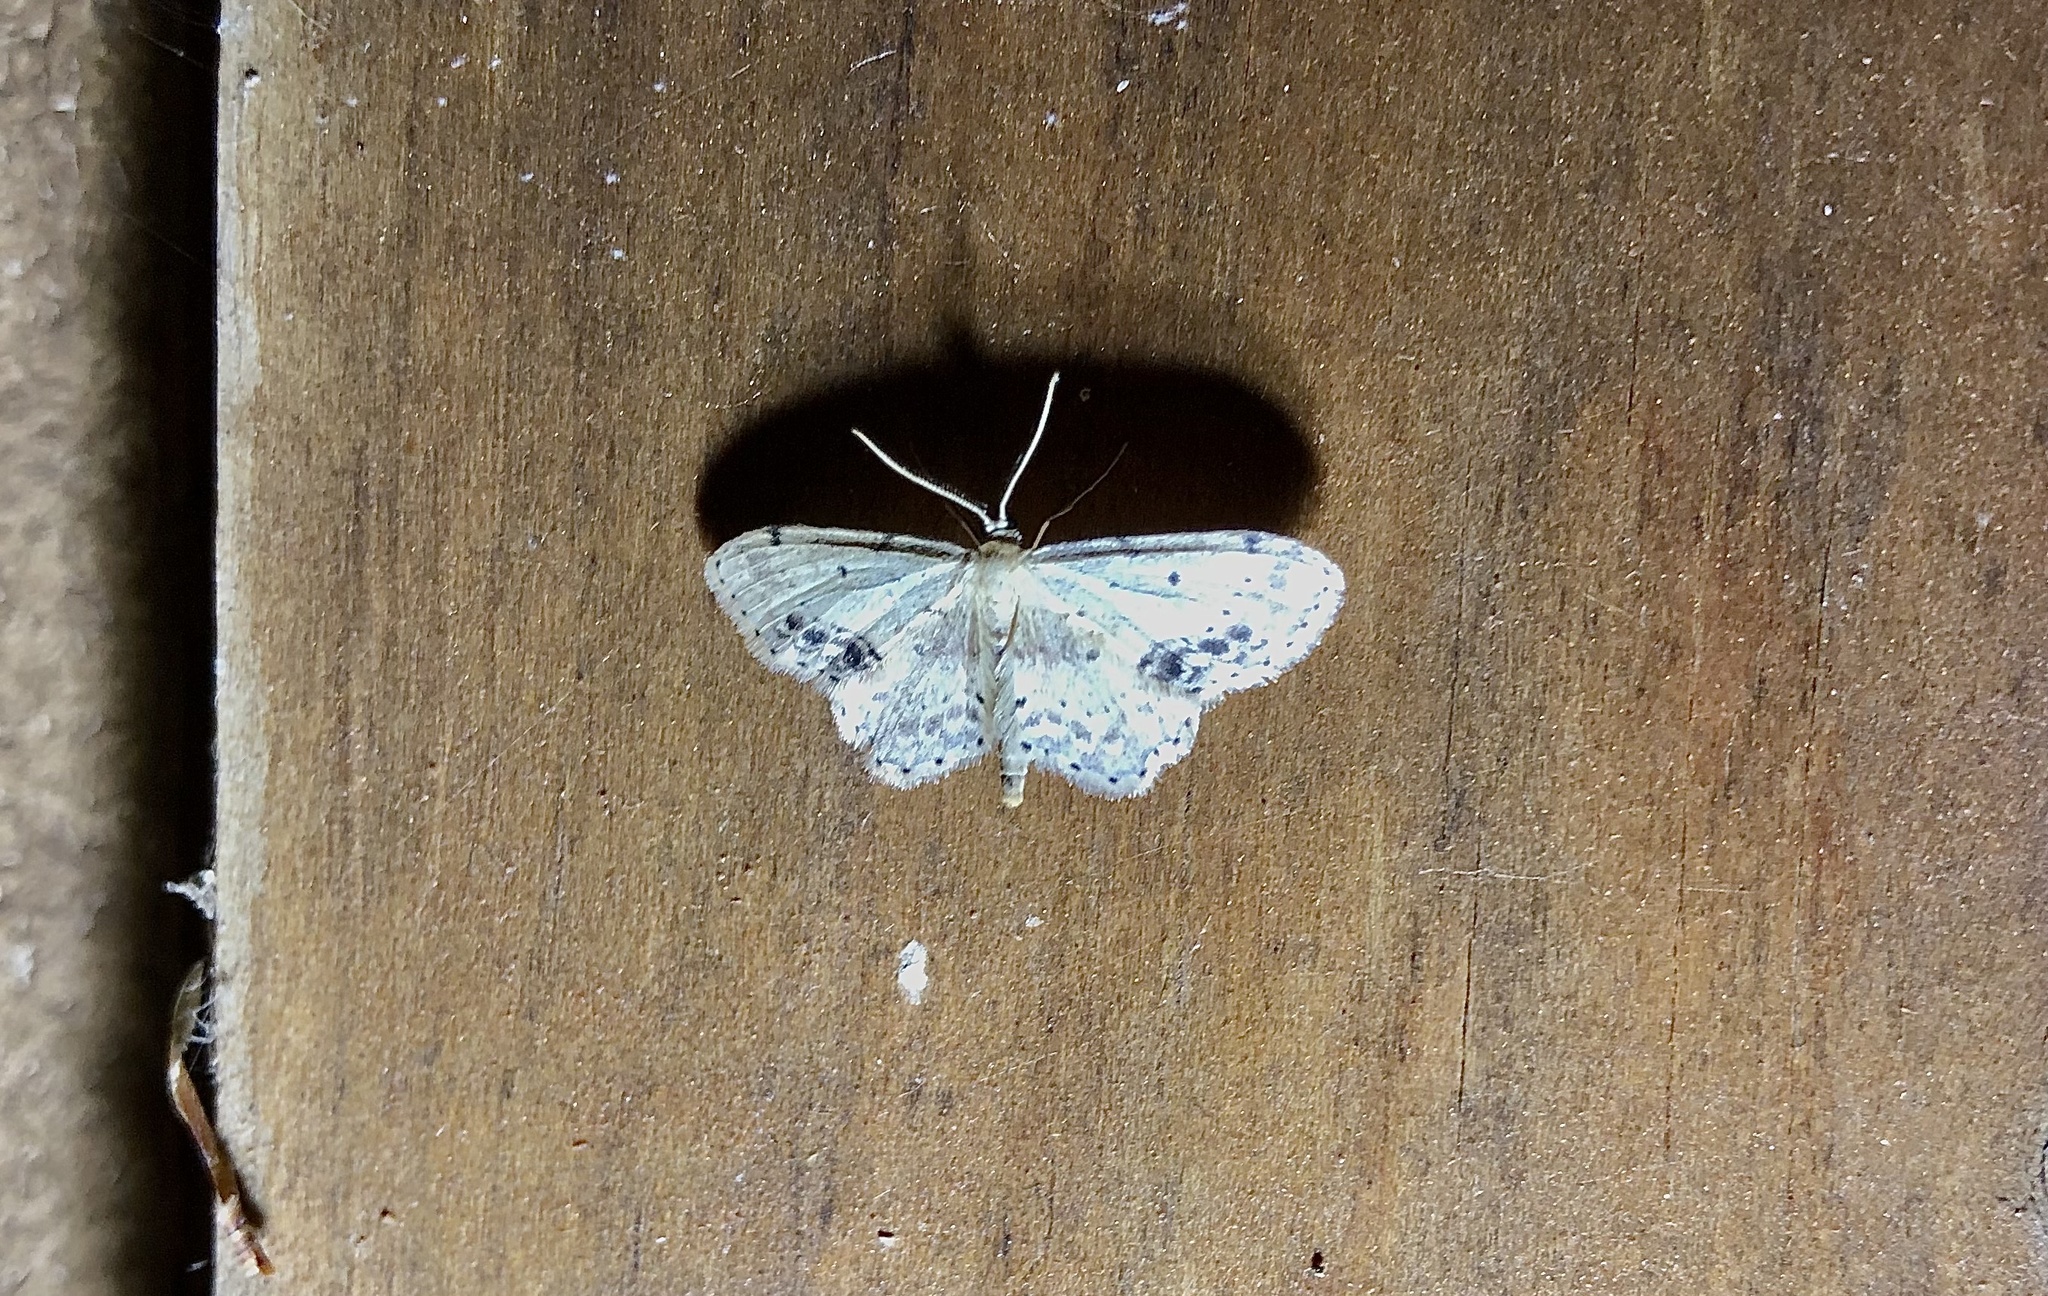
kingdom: Animalia
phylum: Arthropoda
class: Insecta
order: Lepidoptera
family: Geometridae
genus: Idaea
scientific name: Idaea dimidiata
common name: Single-dotted wave
